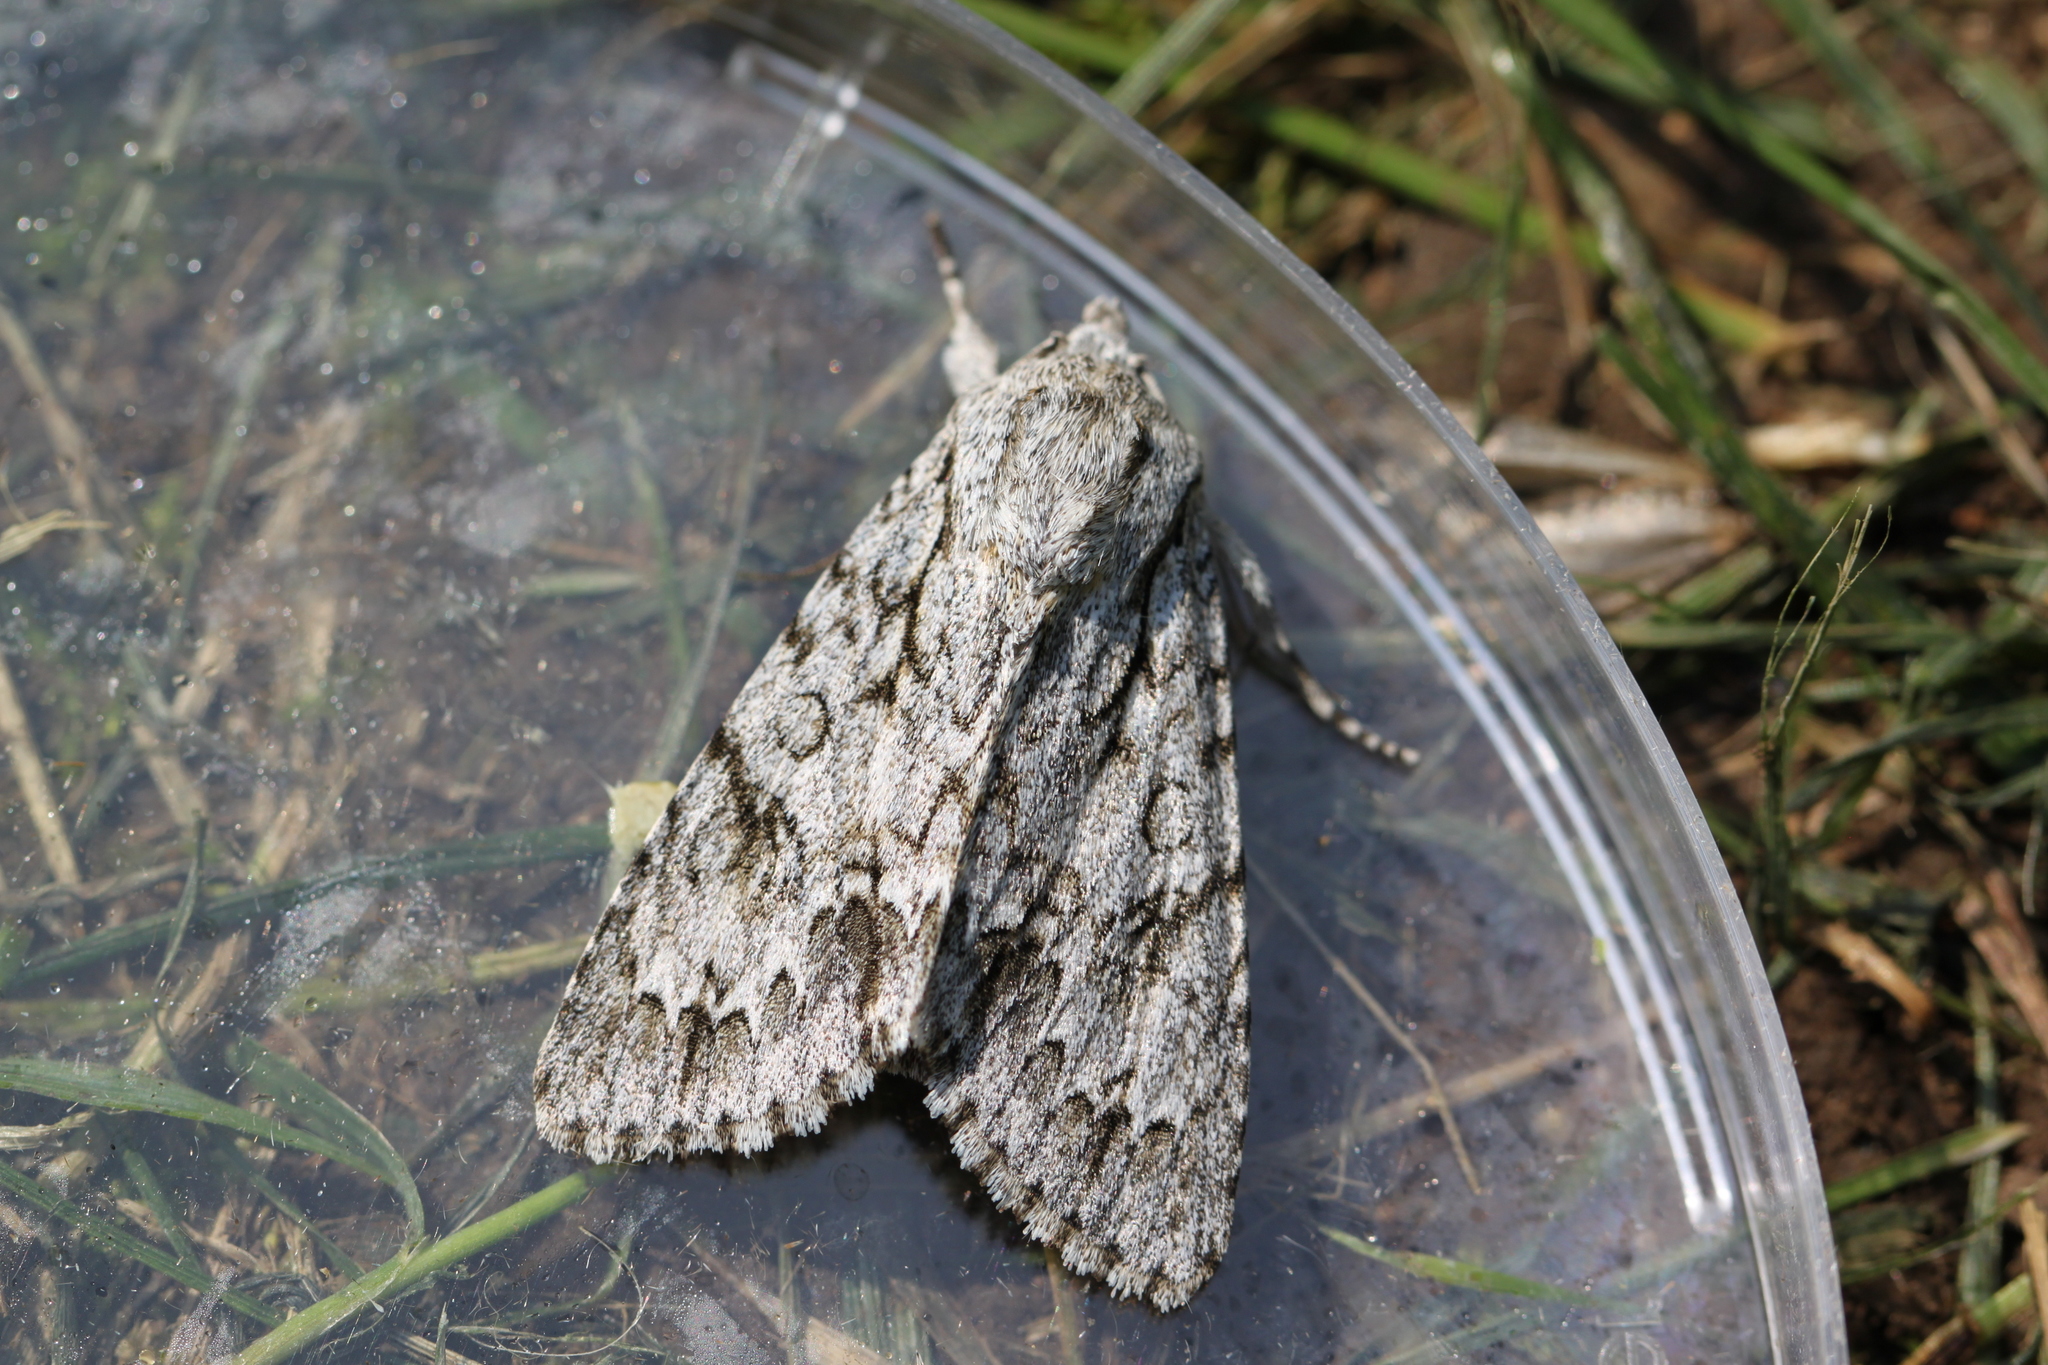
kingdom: Animalia
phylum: Arthropoda
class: Insecta
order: Lepidoptera
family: Noctuidae
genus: Acronicta
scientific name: Acronicta aceris
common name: Sycamore
